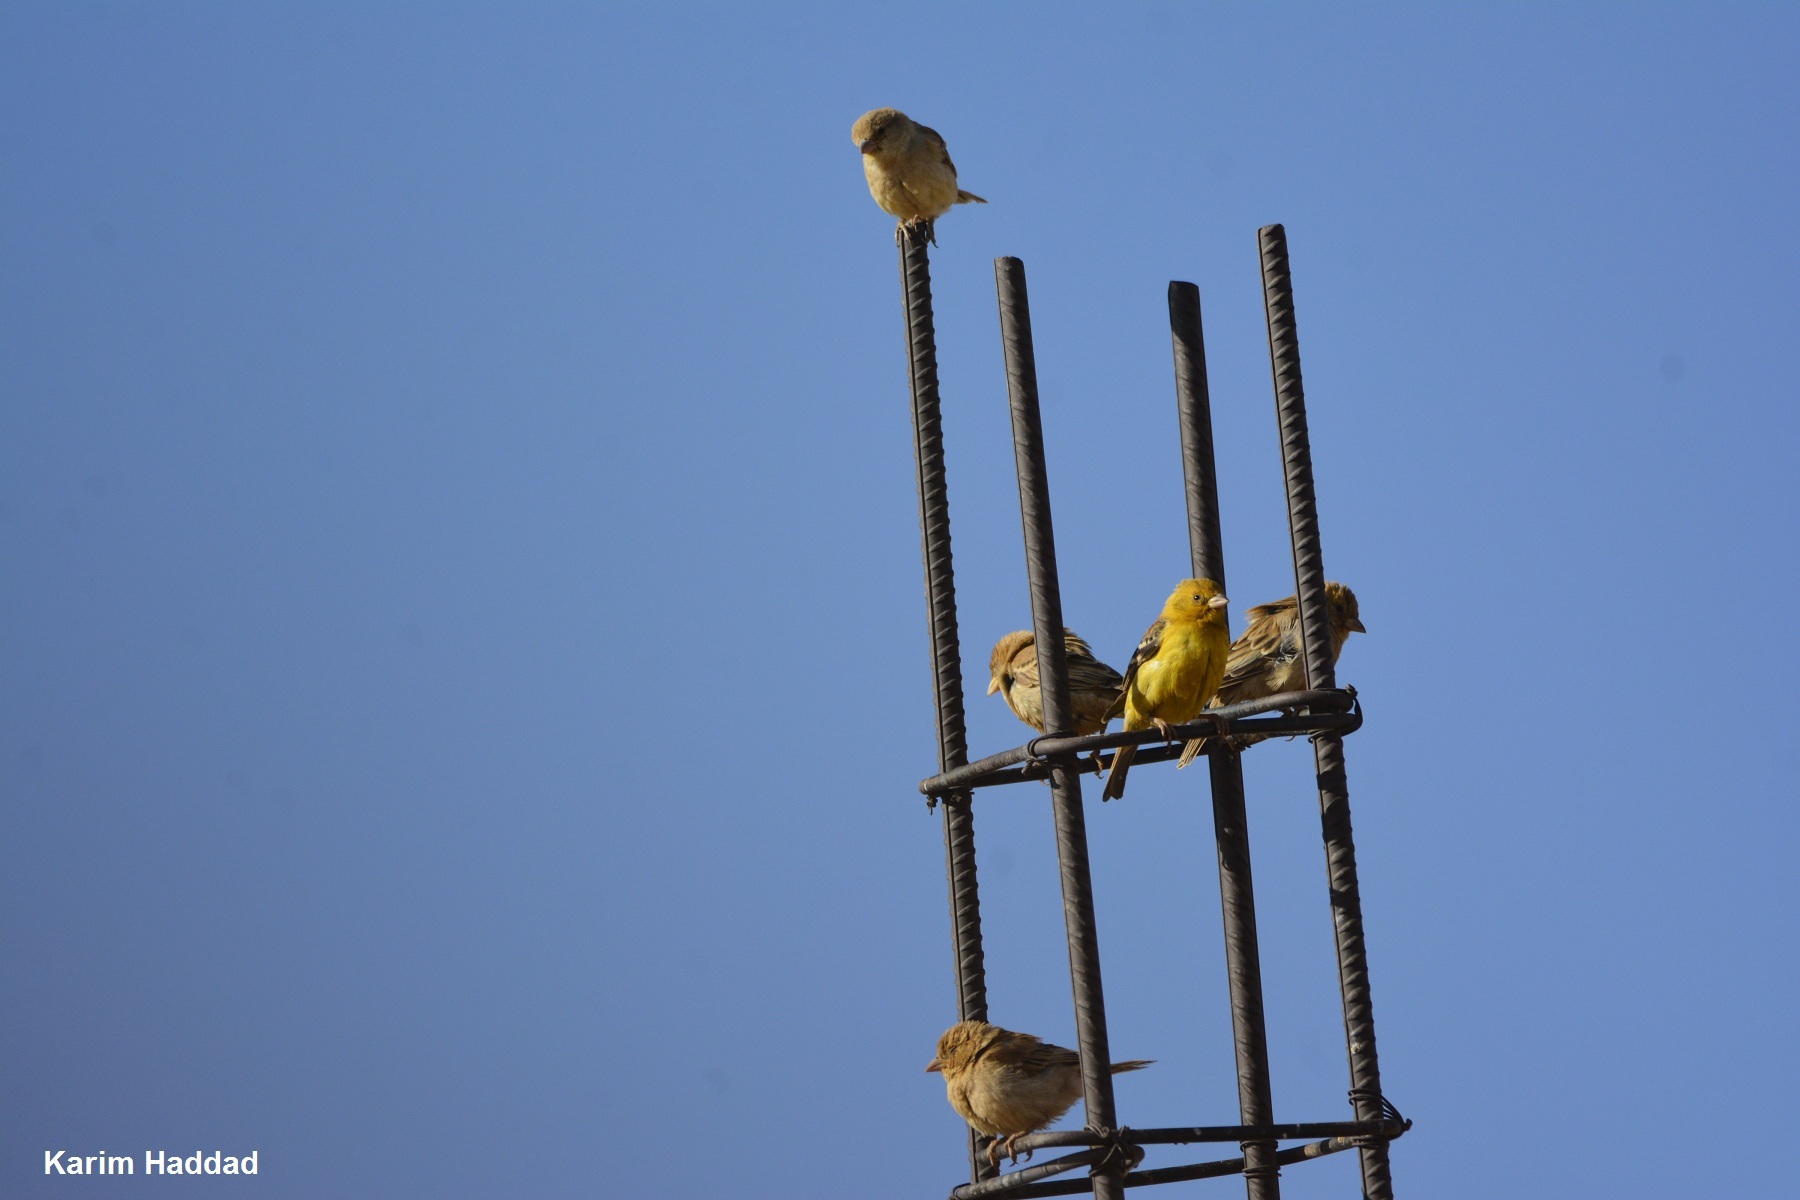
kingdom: Animalia
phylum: Chordata
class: Aves
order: Passeriformes
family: Passeridae
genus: Passer
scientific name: Passer luteus
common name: Sudan golden sparrow
